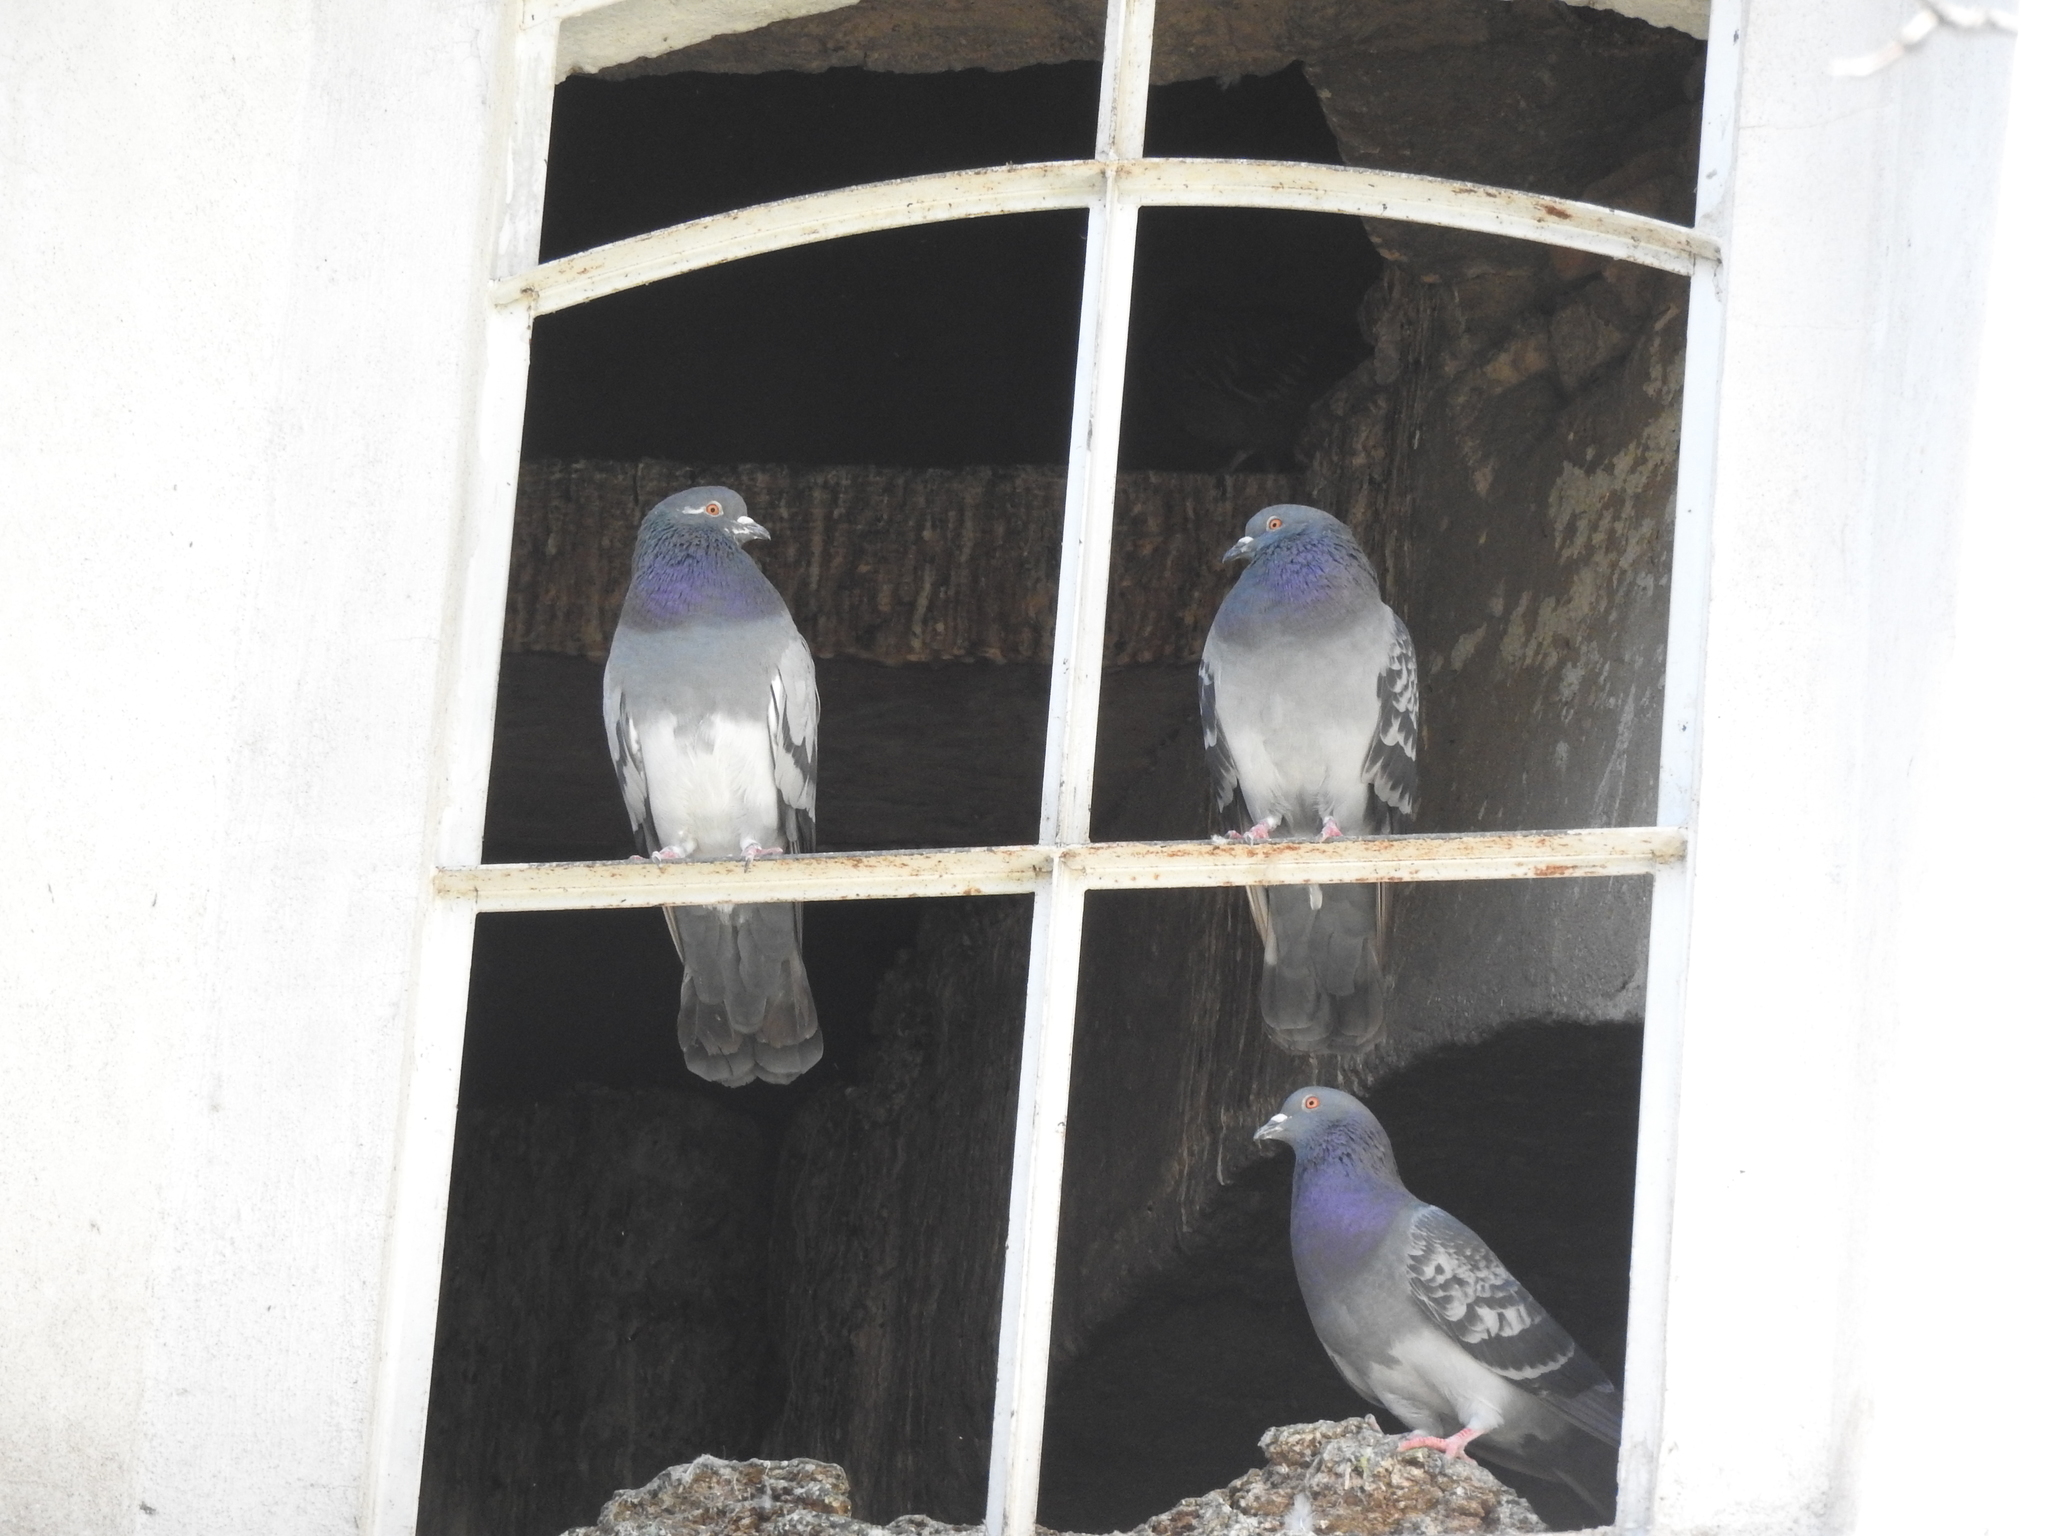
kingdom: Animalia
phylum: Chordata
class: Aves
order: Columbiformes
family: Columbidae
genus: Columba
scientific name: Columba livia
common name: Rock pigeon
